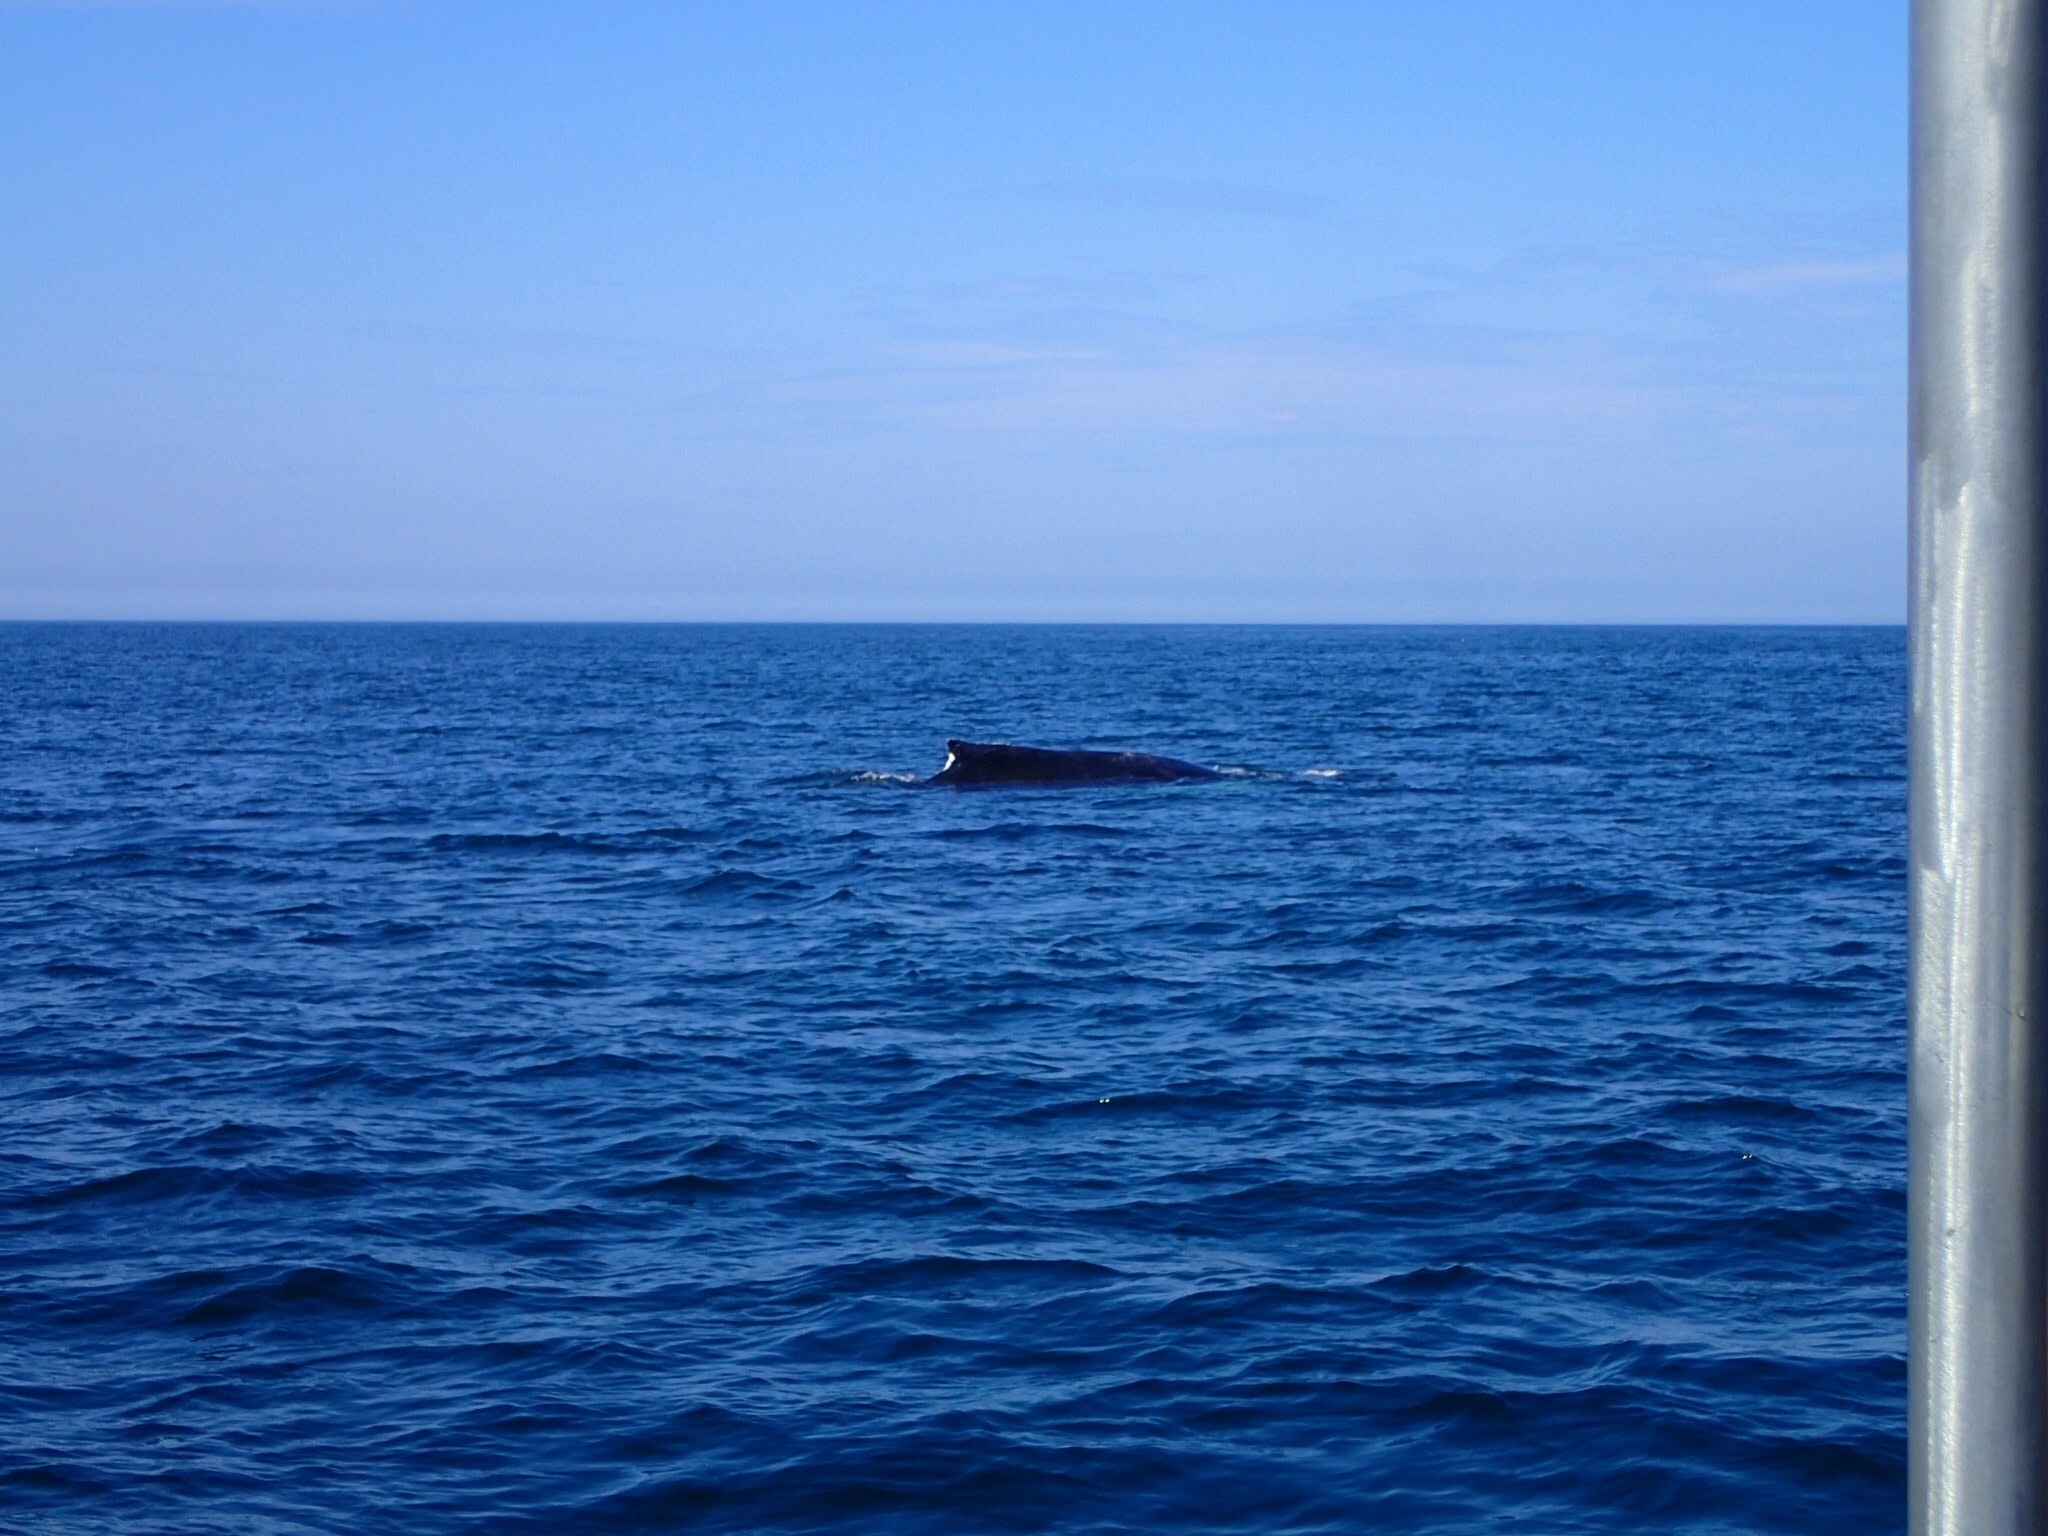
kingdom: Animalia
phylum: Chordata
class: Mammalia
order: Cetacea
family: Balaenopteridae
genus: Megaptera
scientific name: Megaptera novaeangliae
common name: Humpback whale
